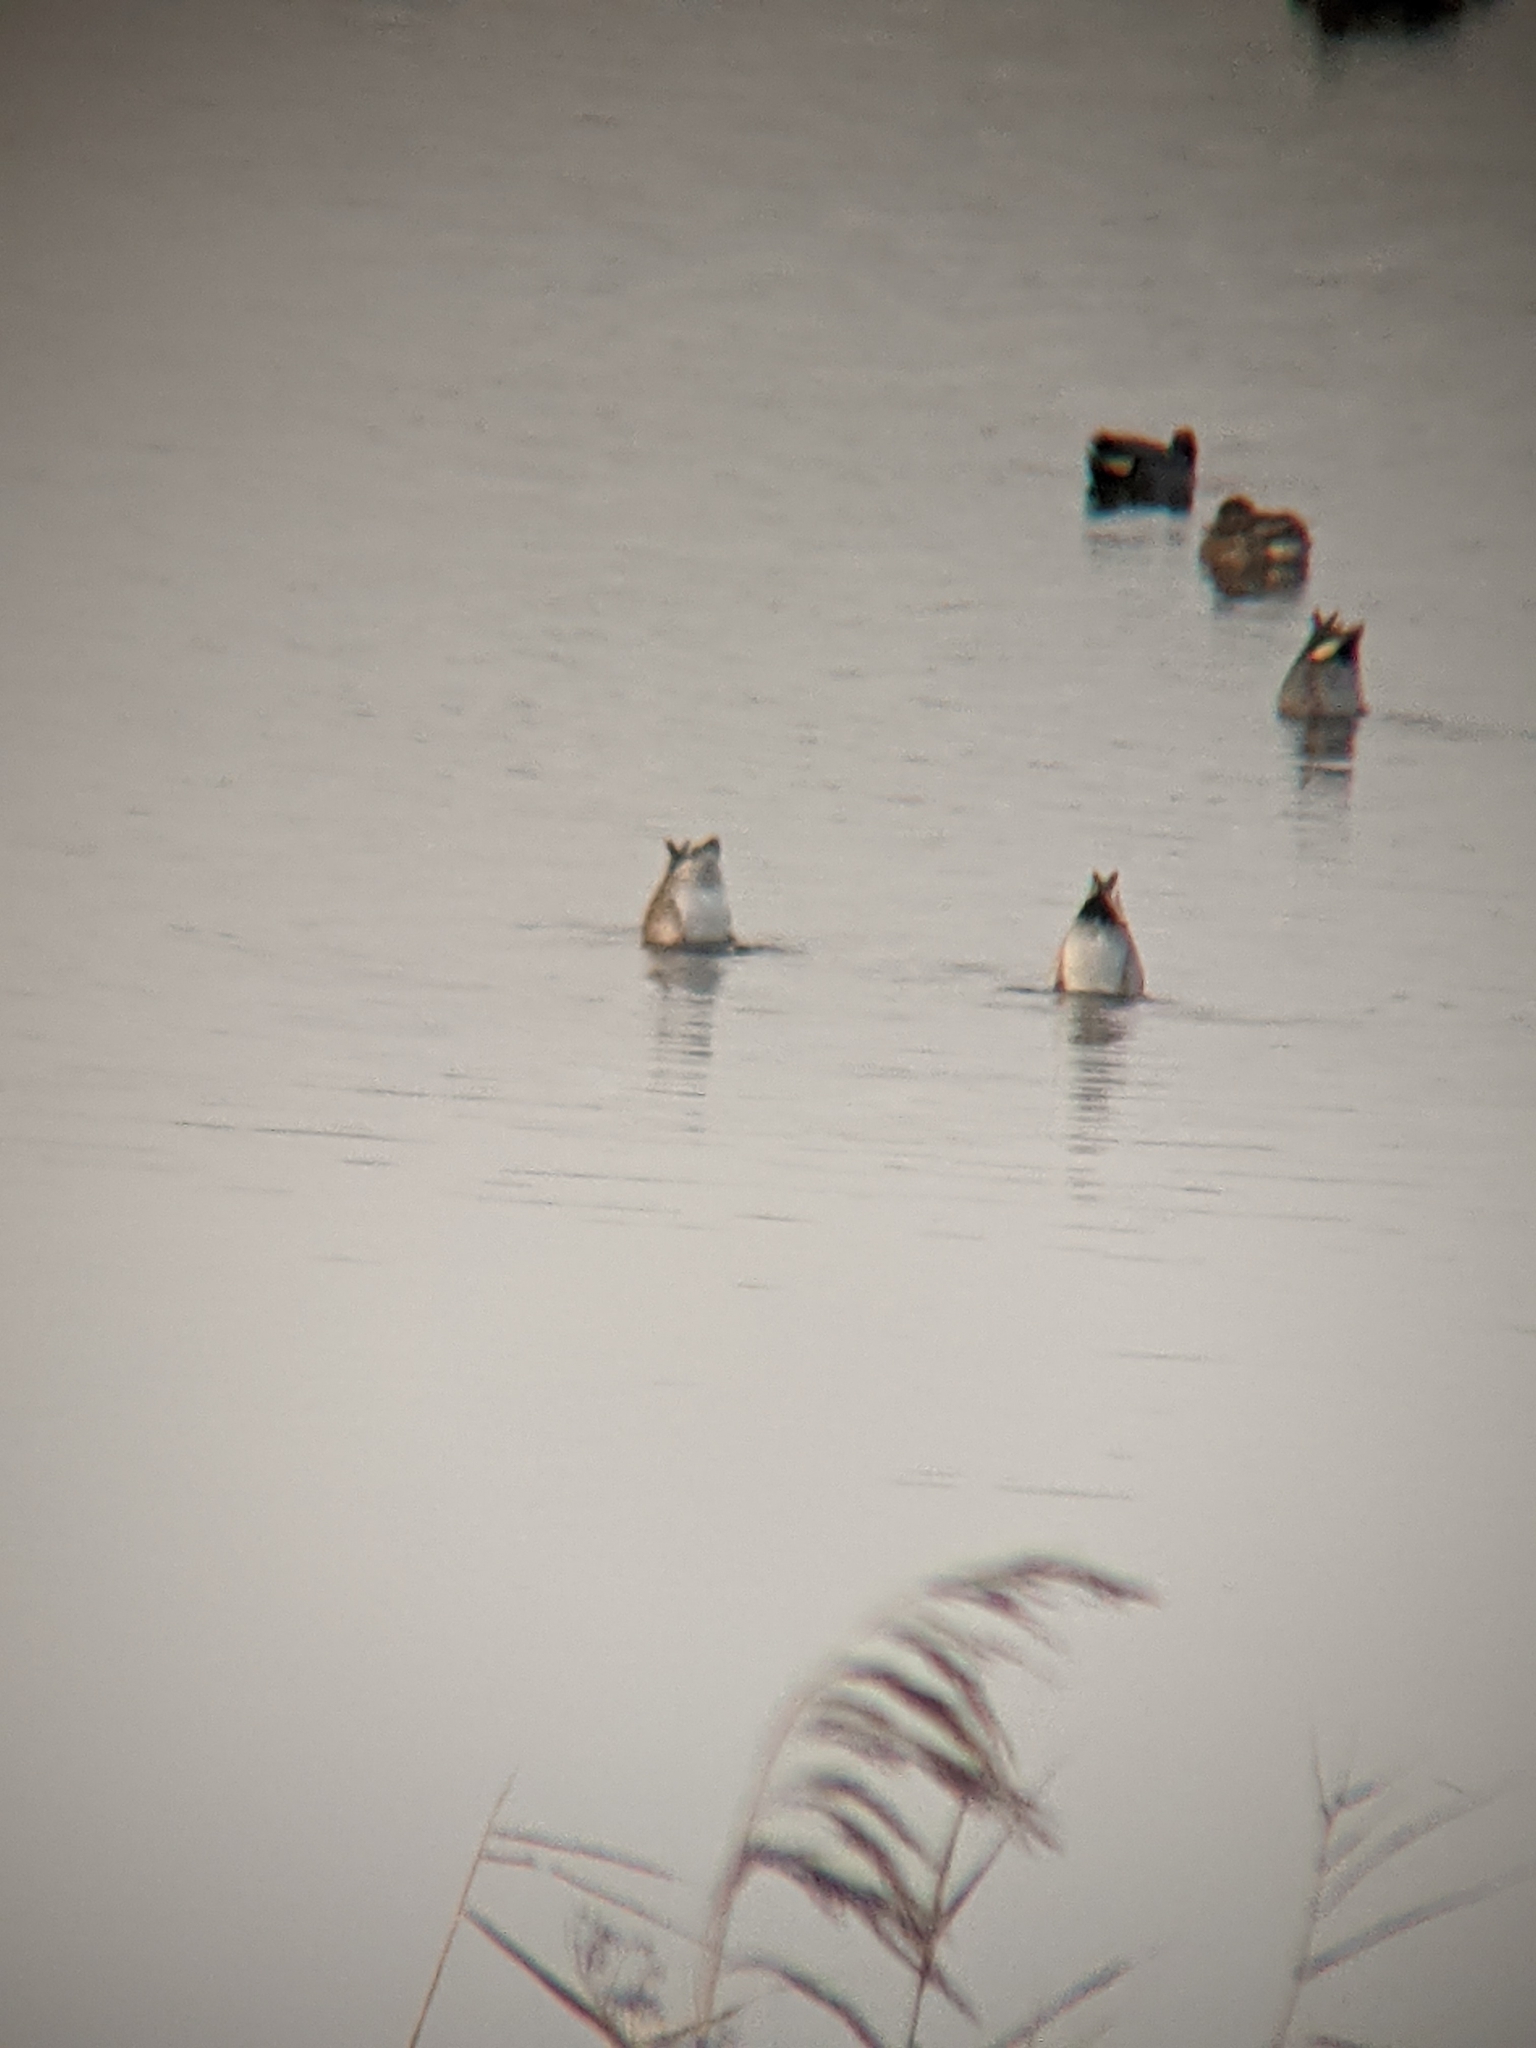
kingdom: Animalia
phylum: Chordata
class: Aves
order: Anseriformes
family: Anatidae
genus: Anas
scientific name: Anas crecca
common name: Eurasian teal
